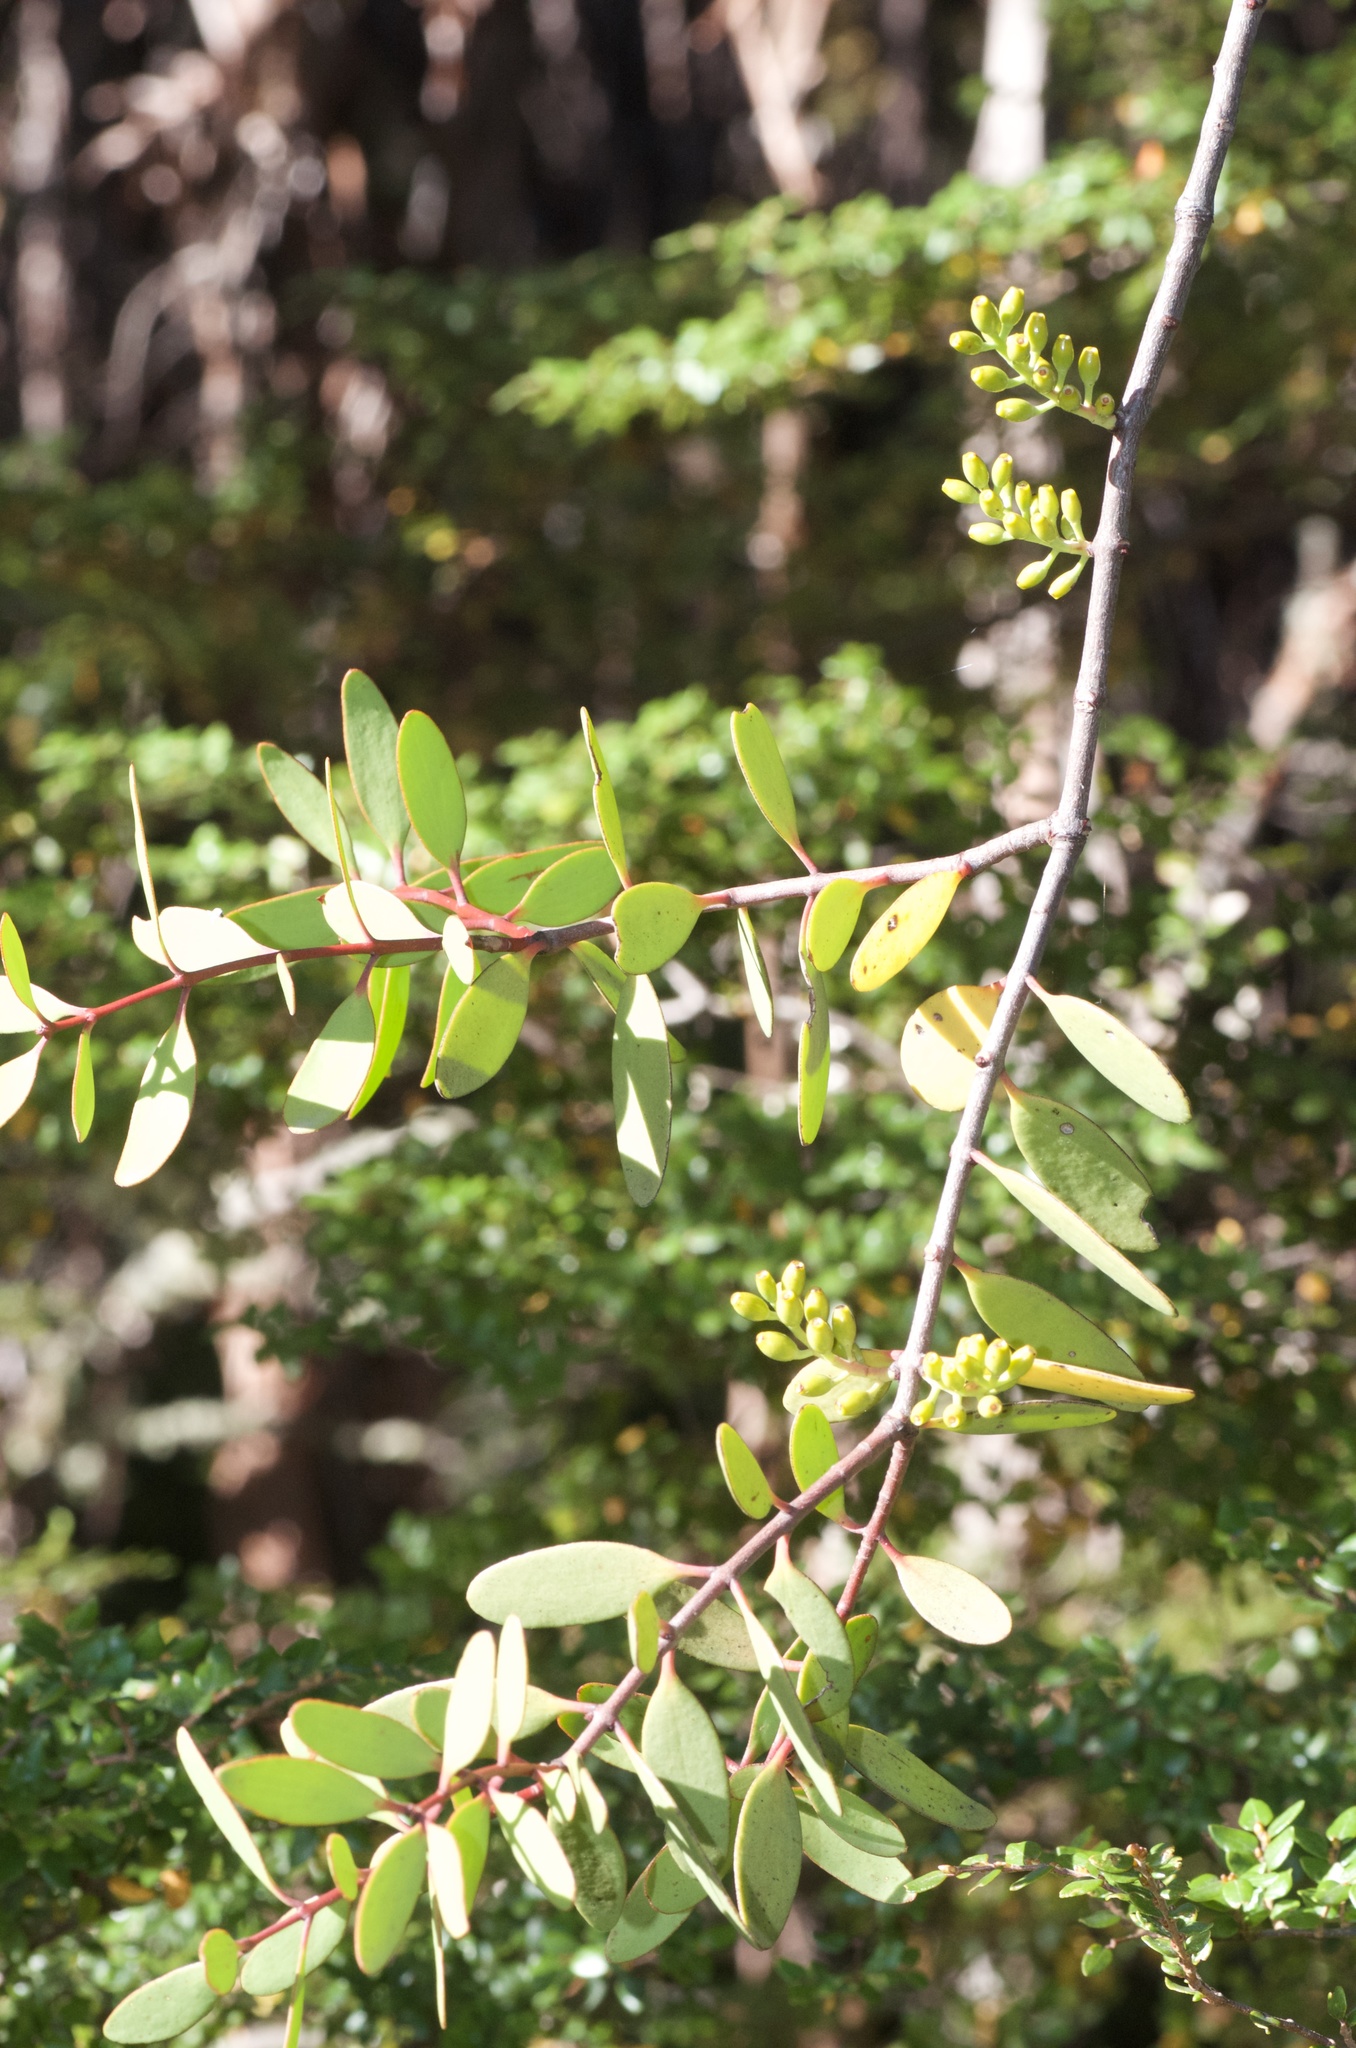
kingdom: Plantae
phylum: Tracheophyta
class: Magnoliopsida
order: Santalales
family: Loranthaceae
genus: Alepis
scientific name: Alepis flavida
